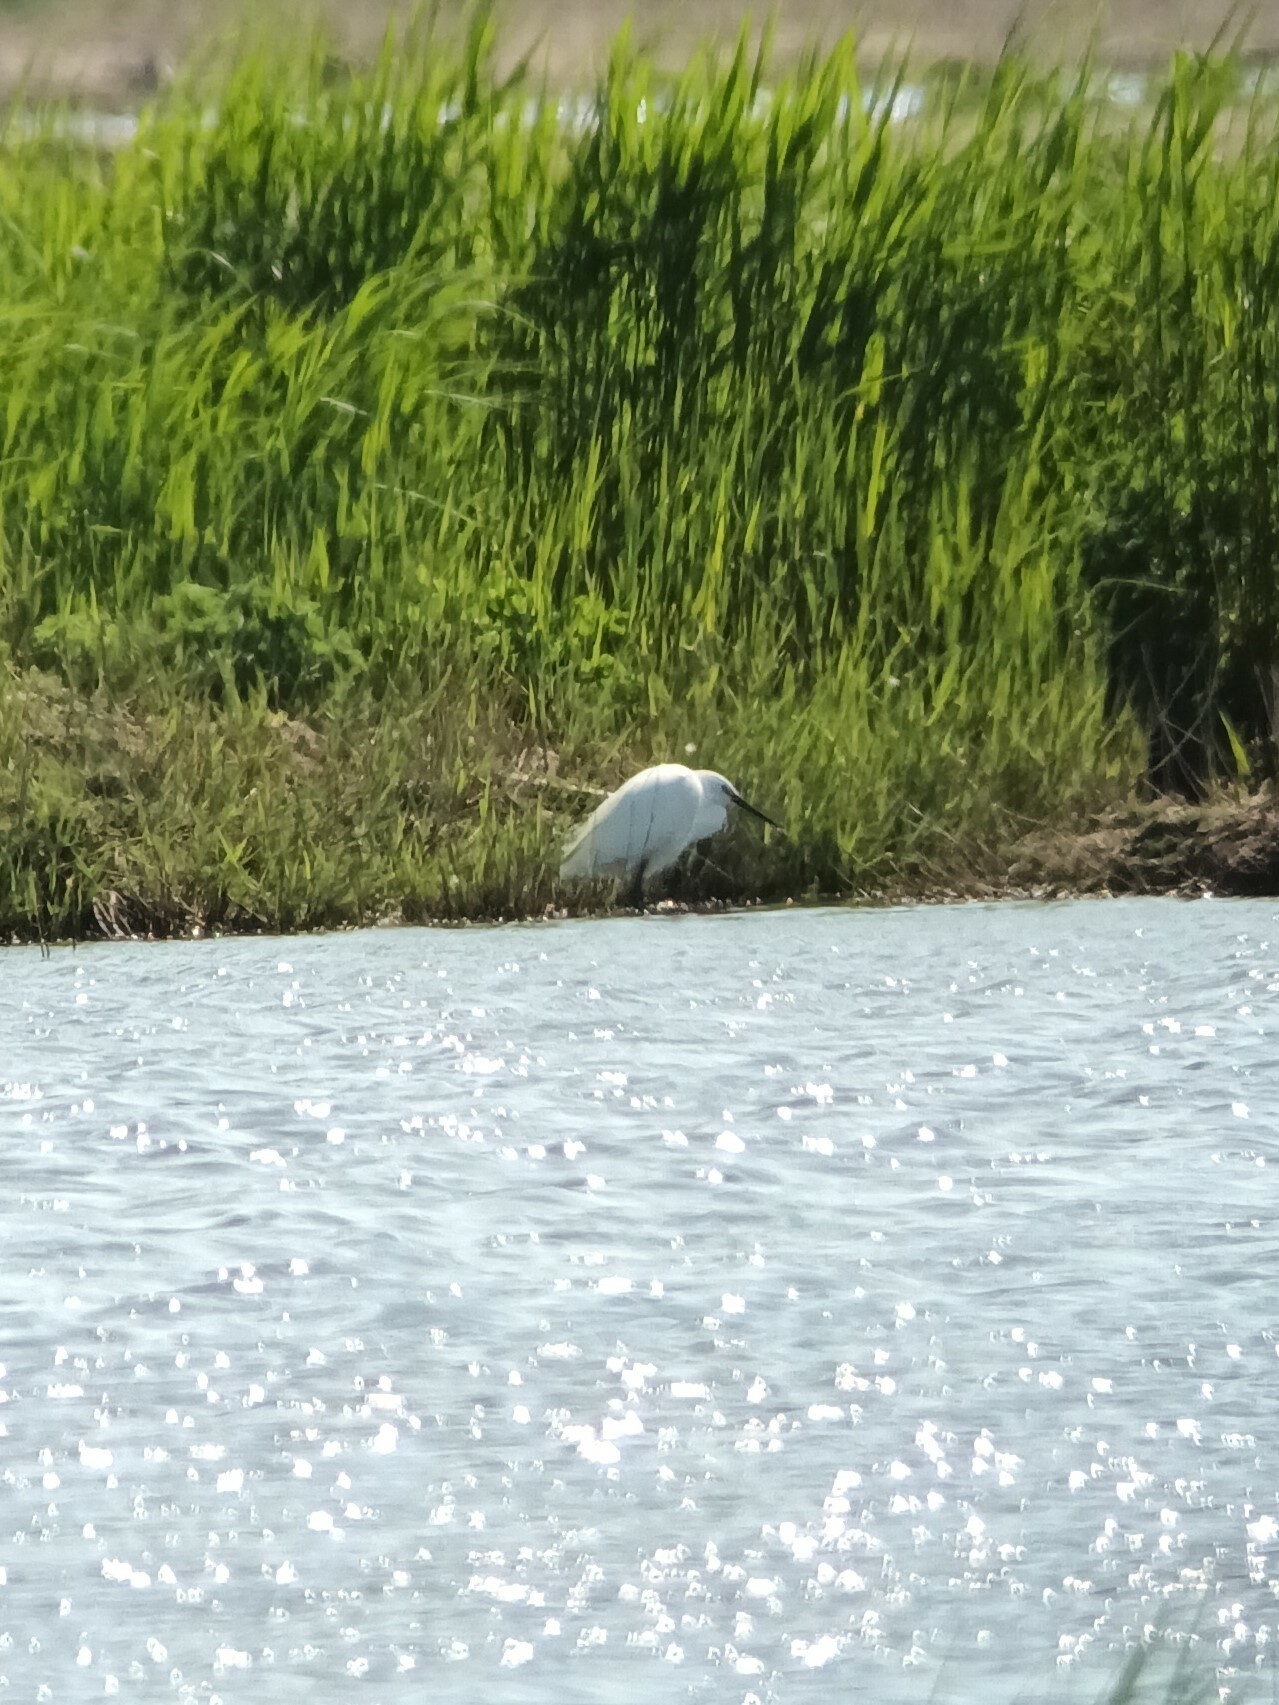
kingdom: Animalia
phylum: Chordata
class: Aves
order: Pelecaniformes
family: Ardeidae
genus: Egretta
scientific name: Egretta garzetta
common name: Little egret
